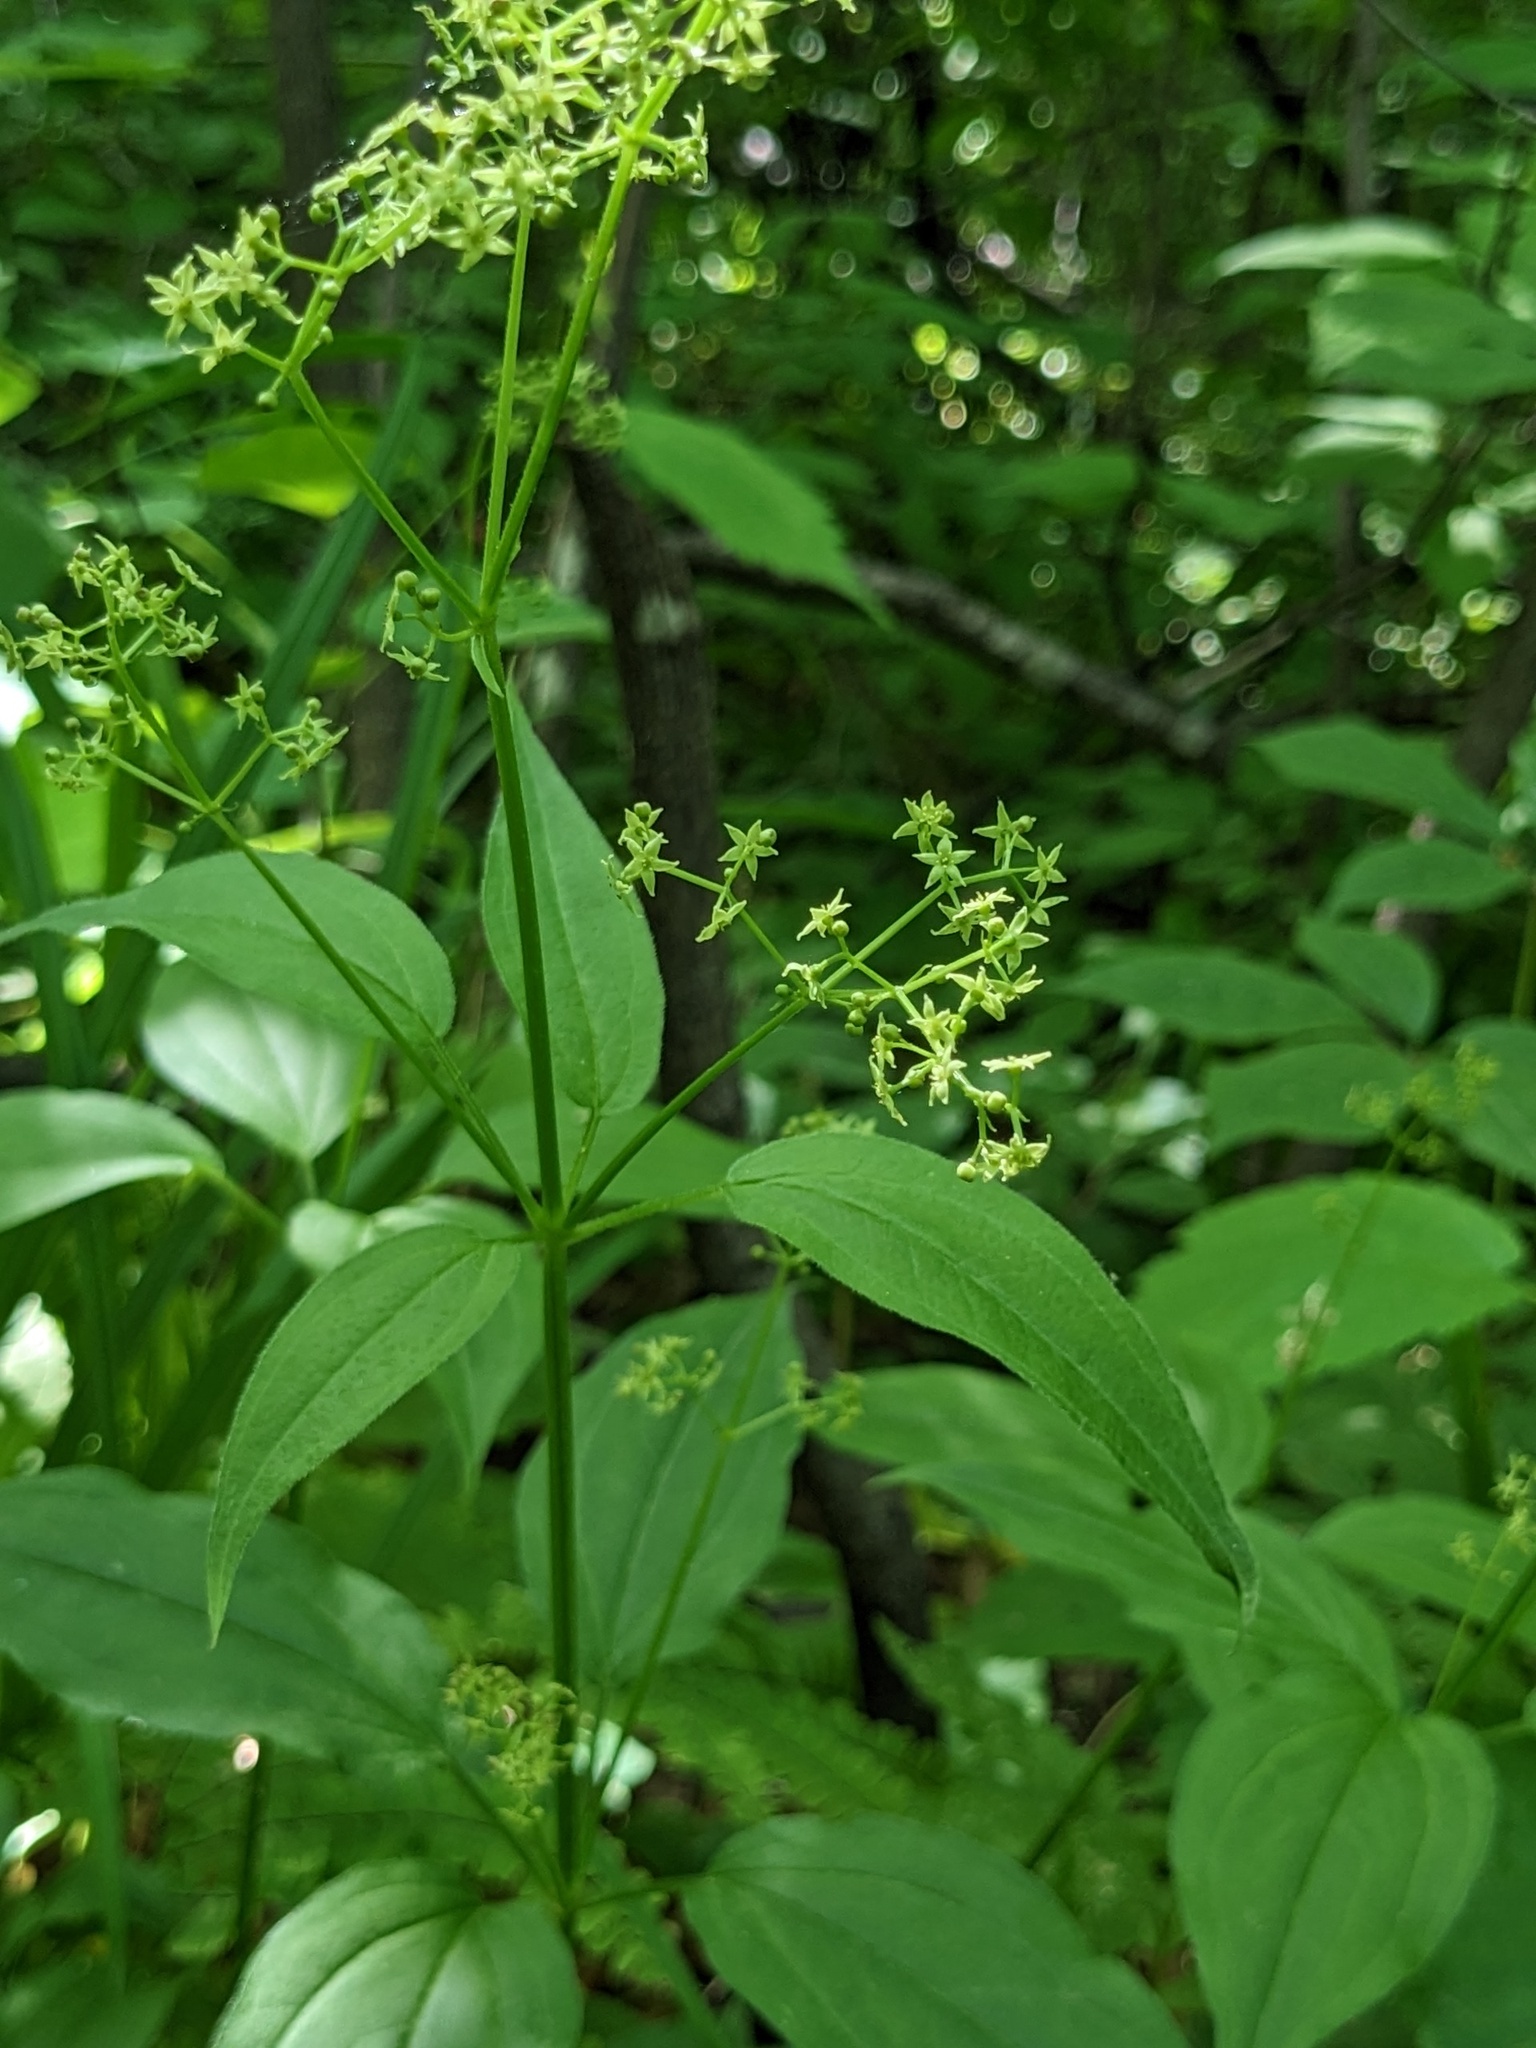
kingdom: Plantae
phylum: Tracheophyta
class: Magnoliopsida
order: Gentianales
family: Rubiaceae
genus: Rubia
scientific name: Rubia chinensis
